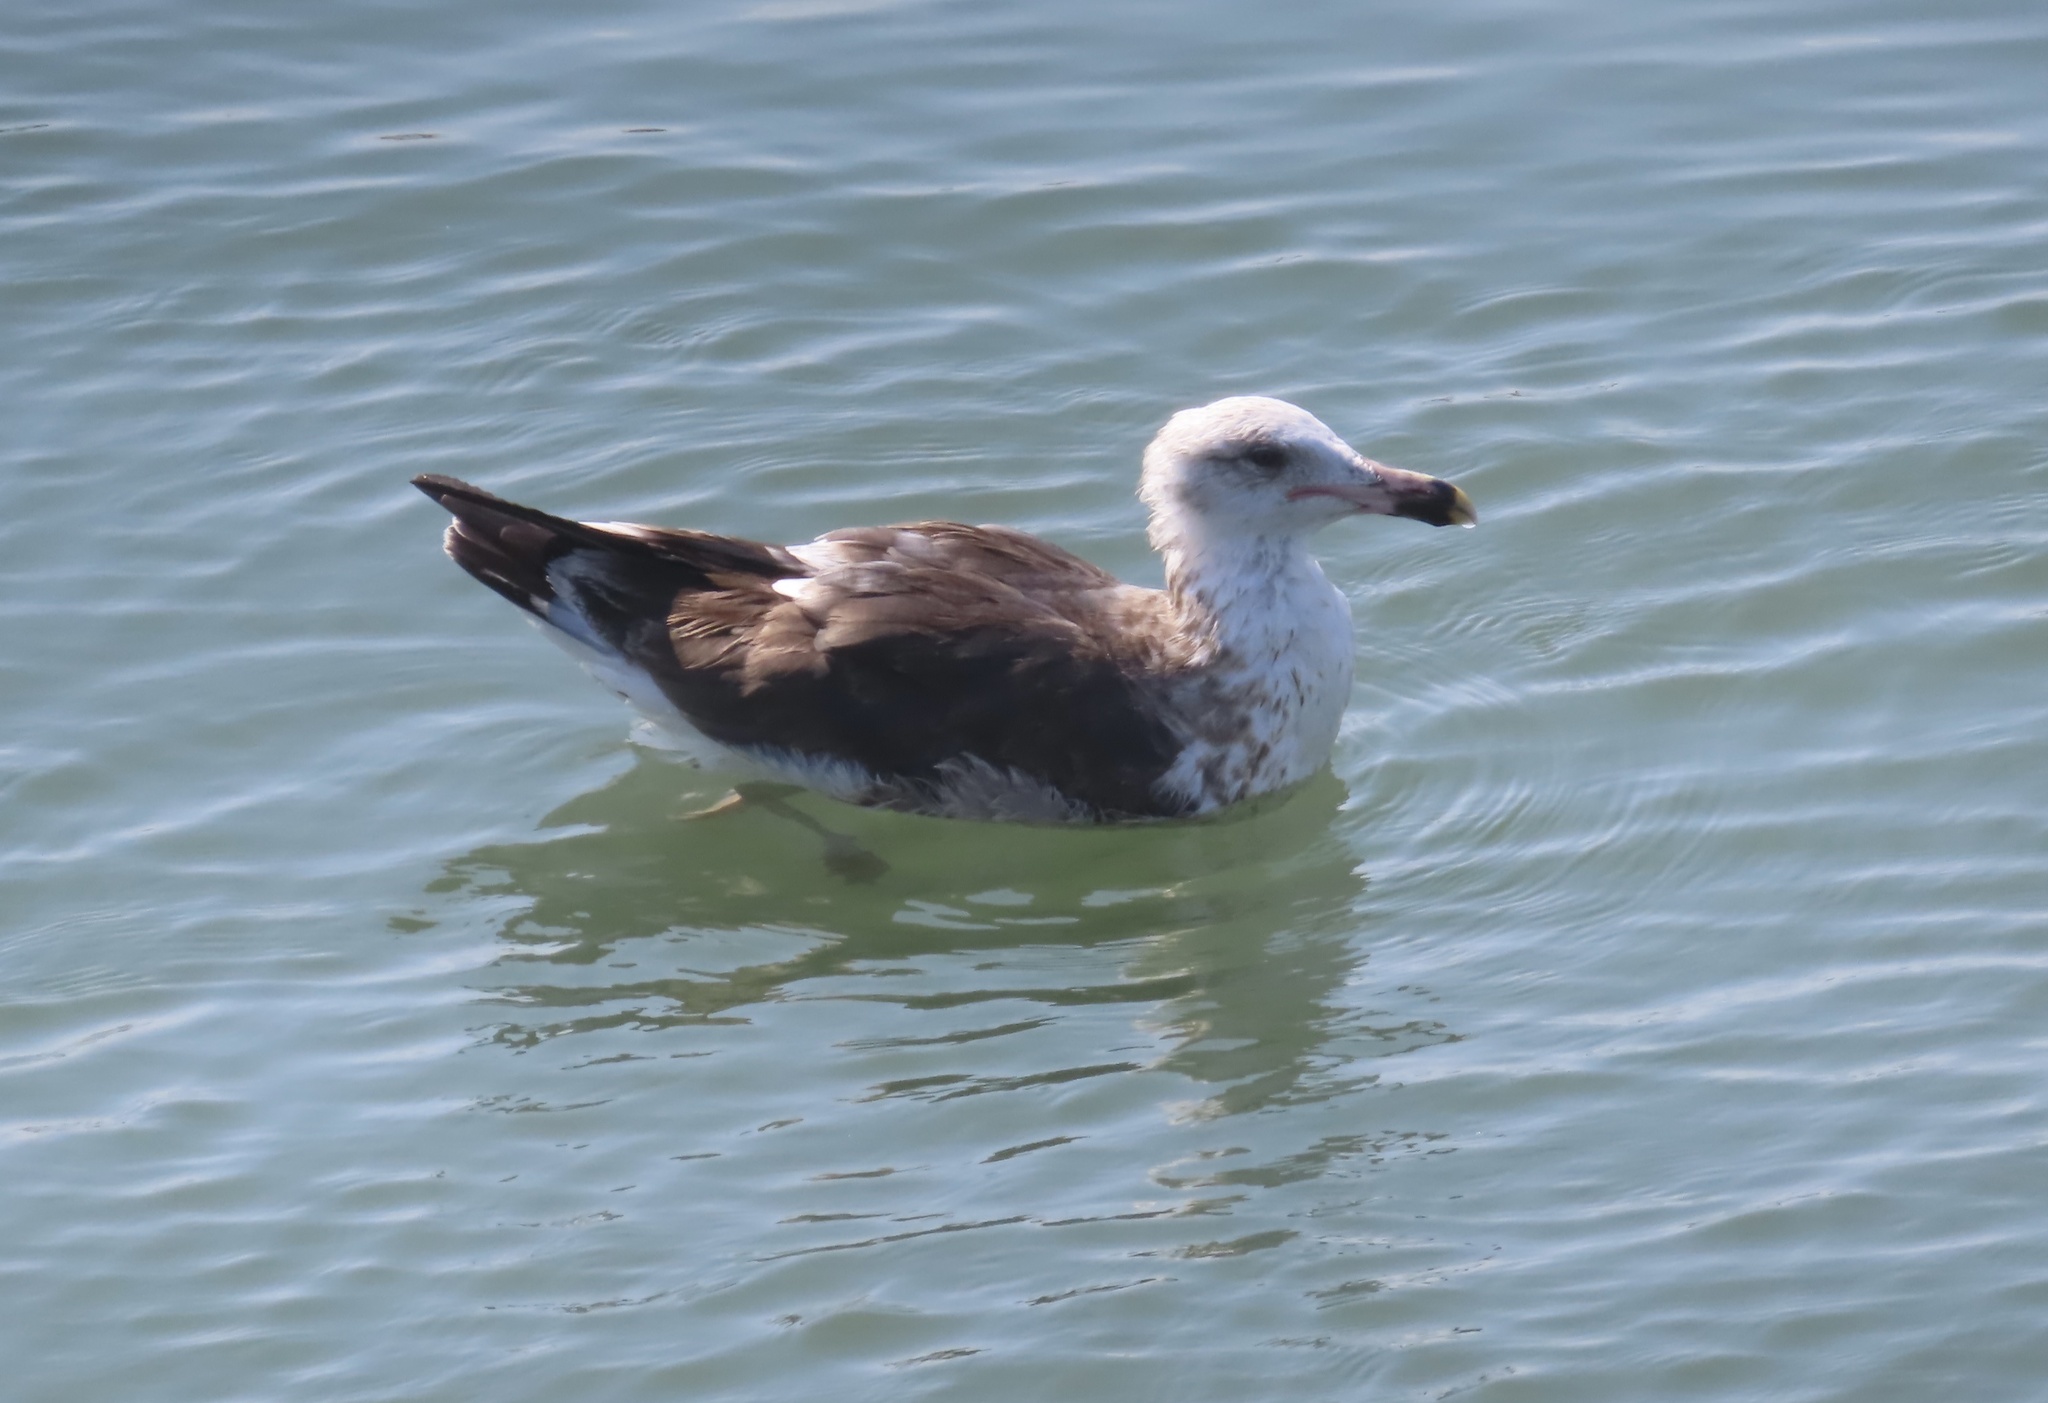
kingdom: Animalia
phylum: Chordata
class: Aves
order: Charadriiformes
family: Laridae
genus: Larus
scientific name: Larus dominicanus
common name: Kelp gull
